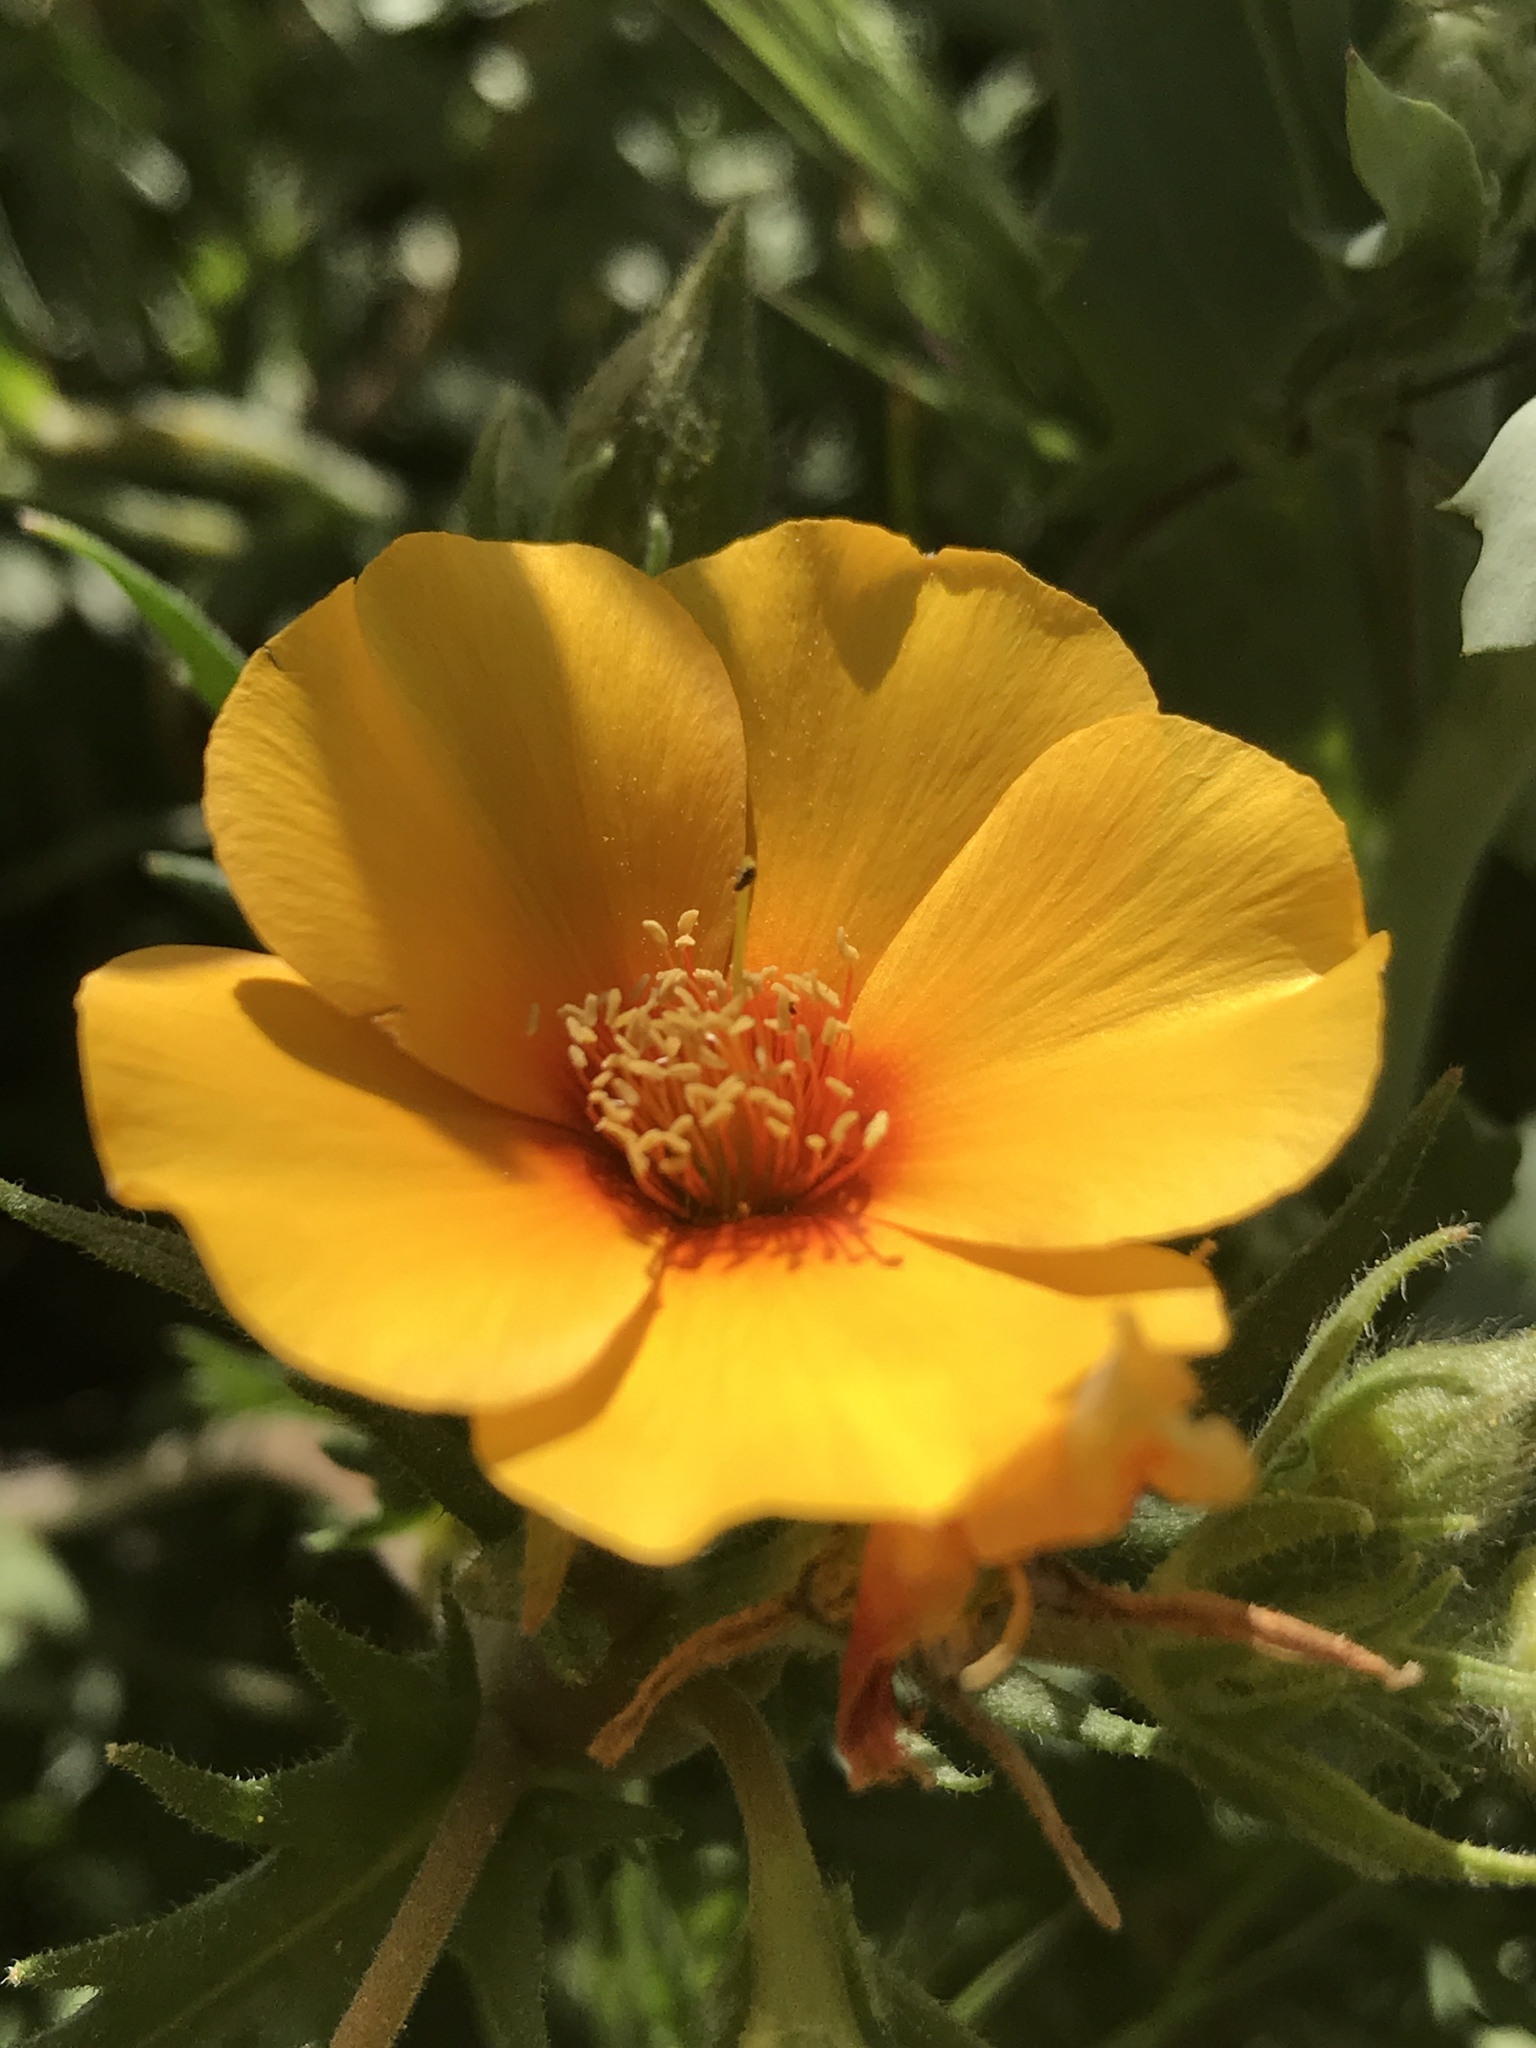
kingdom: Plantae
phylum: Tracheophyta
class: Magnoliopsida
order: Cornales
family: Loasaceae
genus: Mentzelia
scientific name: Mentzelia pectinata
